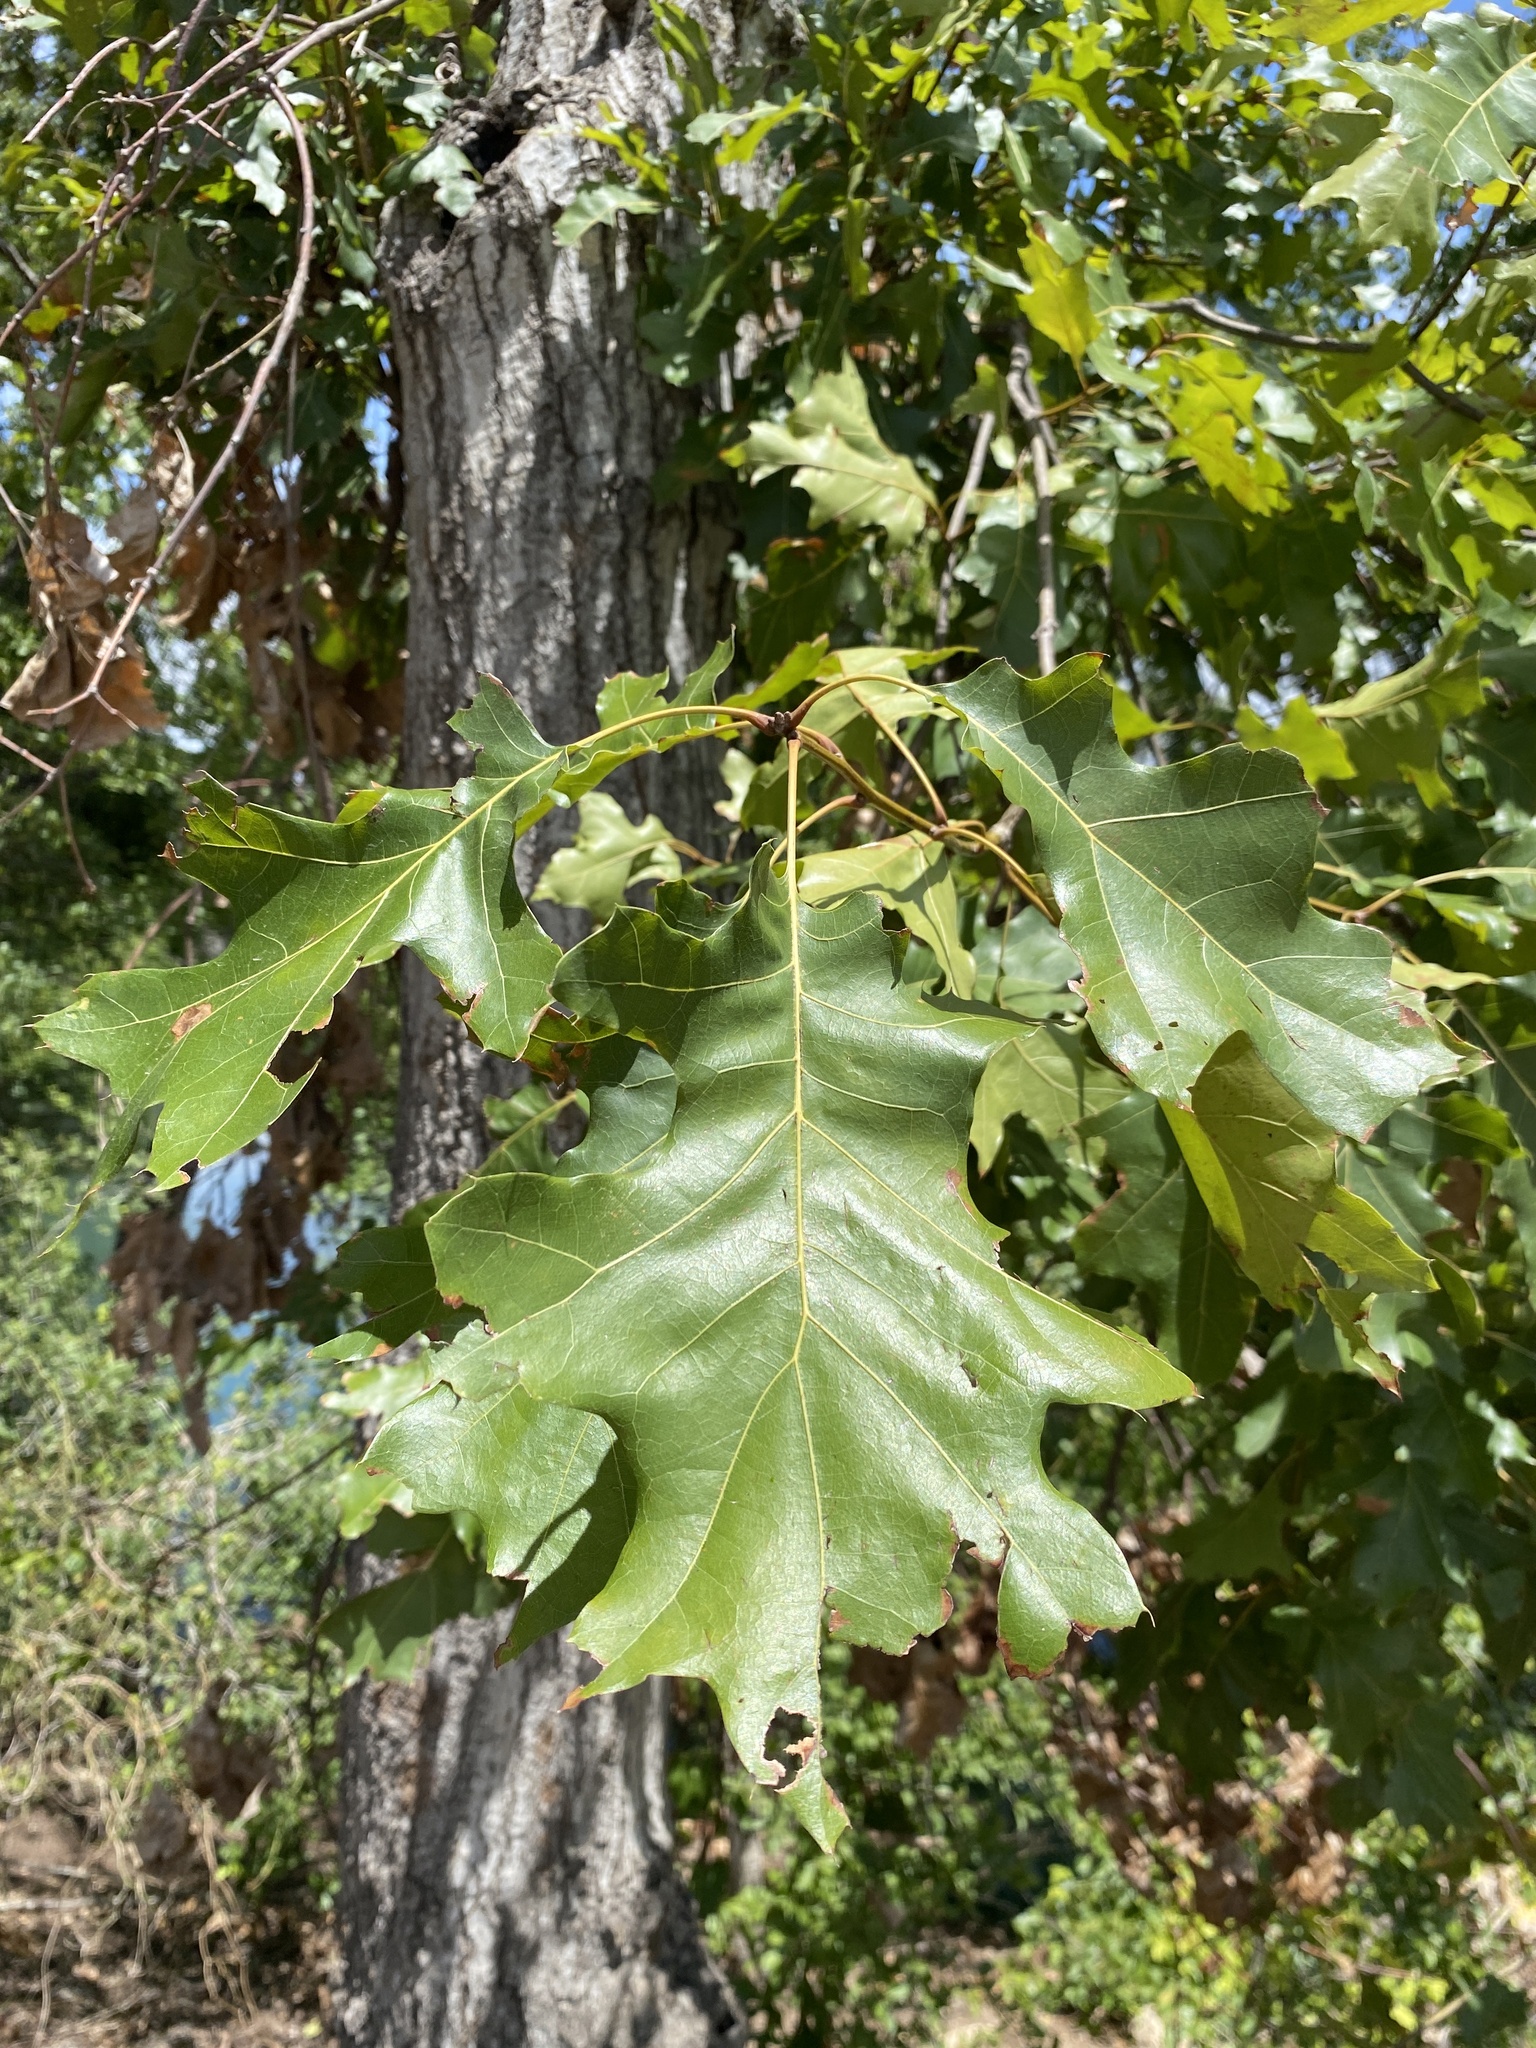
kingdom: Plantae
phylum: Tracheophyta
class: Magnoliopsida
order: Fagales
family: Fagaceae
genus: Quercus
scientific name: Quercus shumardii
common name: Shumard oak
